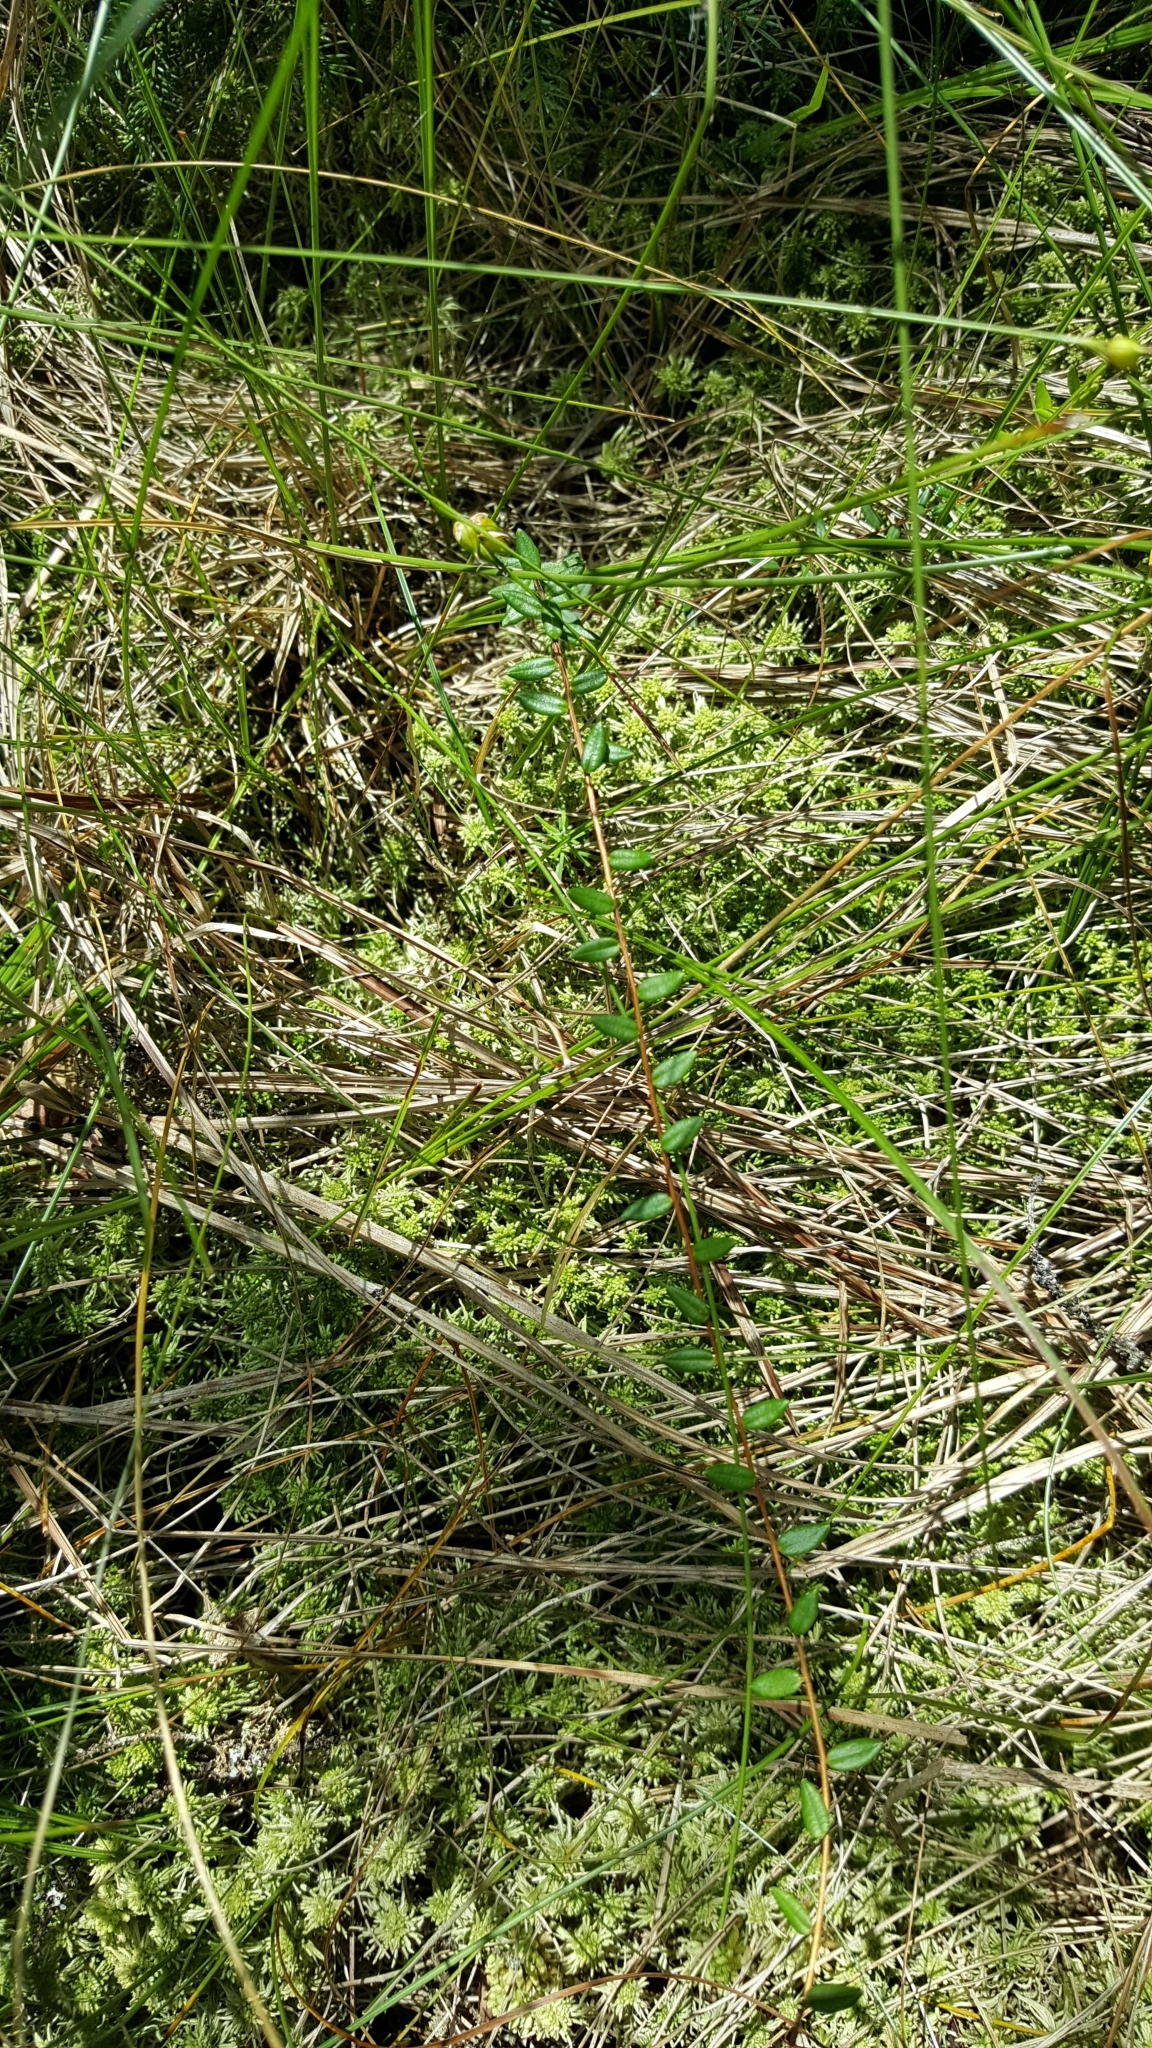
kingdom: Plantae
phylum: Tracheophyta
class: Magnoliopsida
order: Ericales
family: Ericaceae
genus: Vaccinium
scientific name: Vaccinium oxycoccos
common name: Cranberry
